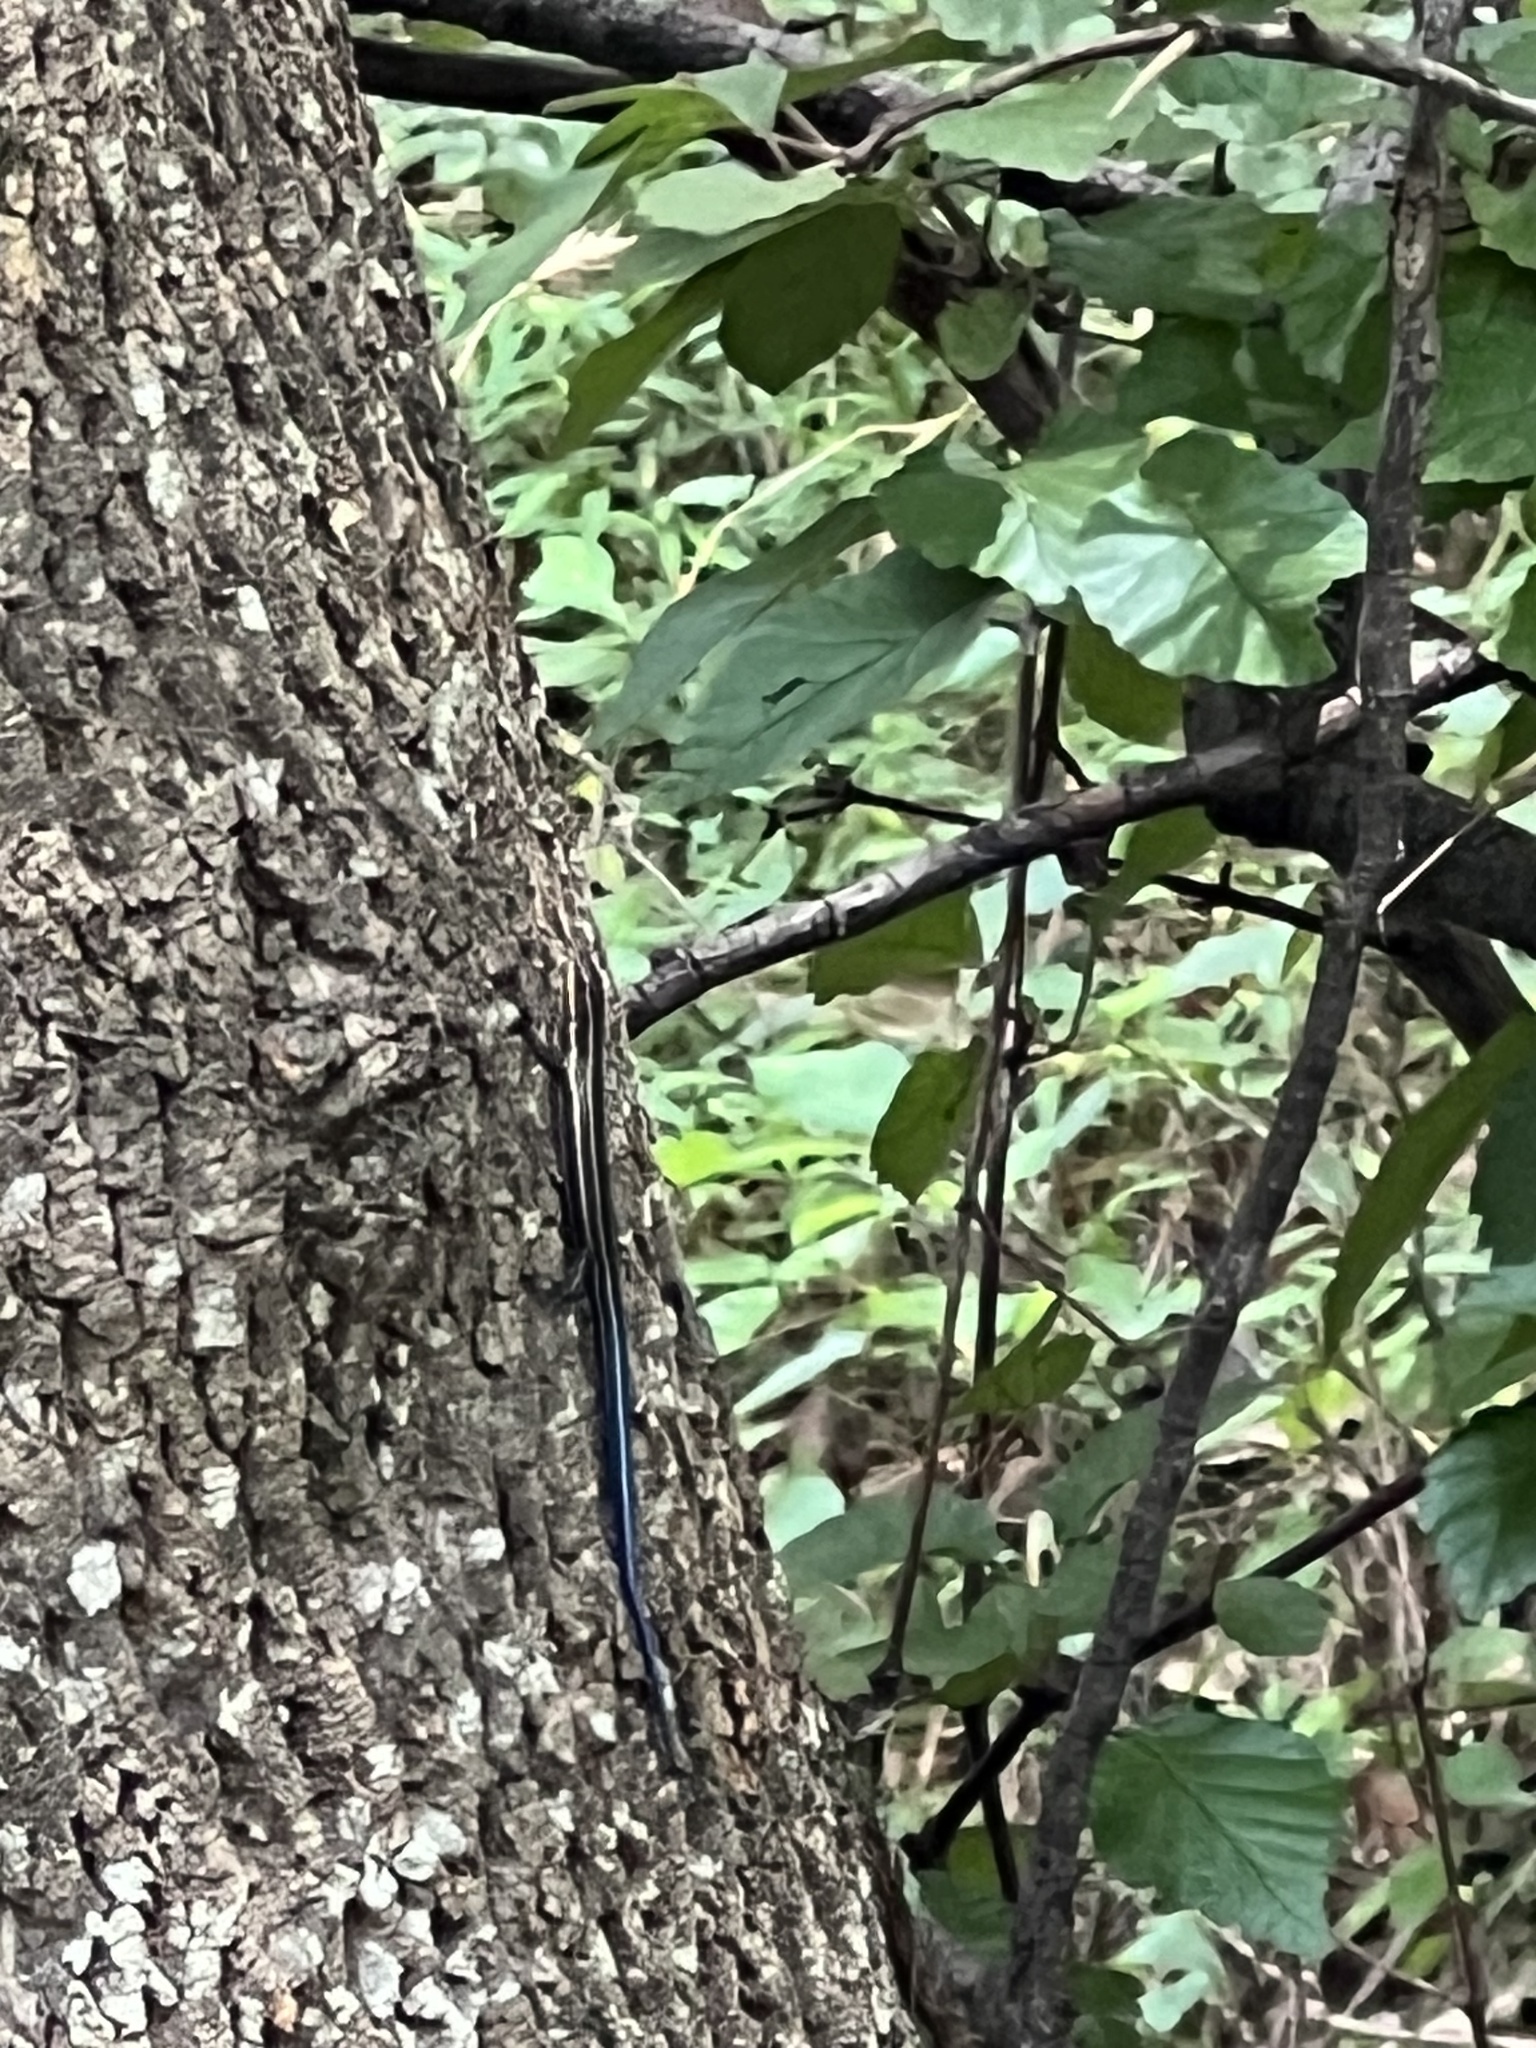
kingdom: Animalia
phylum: Chordata
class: Squamata
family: Scincidae
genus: Plestiodon
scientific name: Plestiodon fasciatus
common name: Five-lined skink
